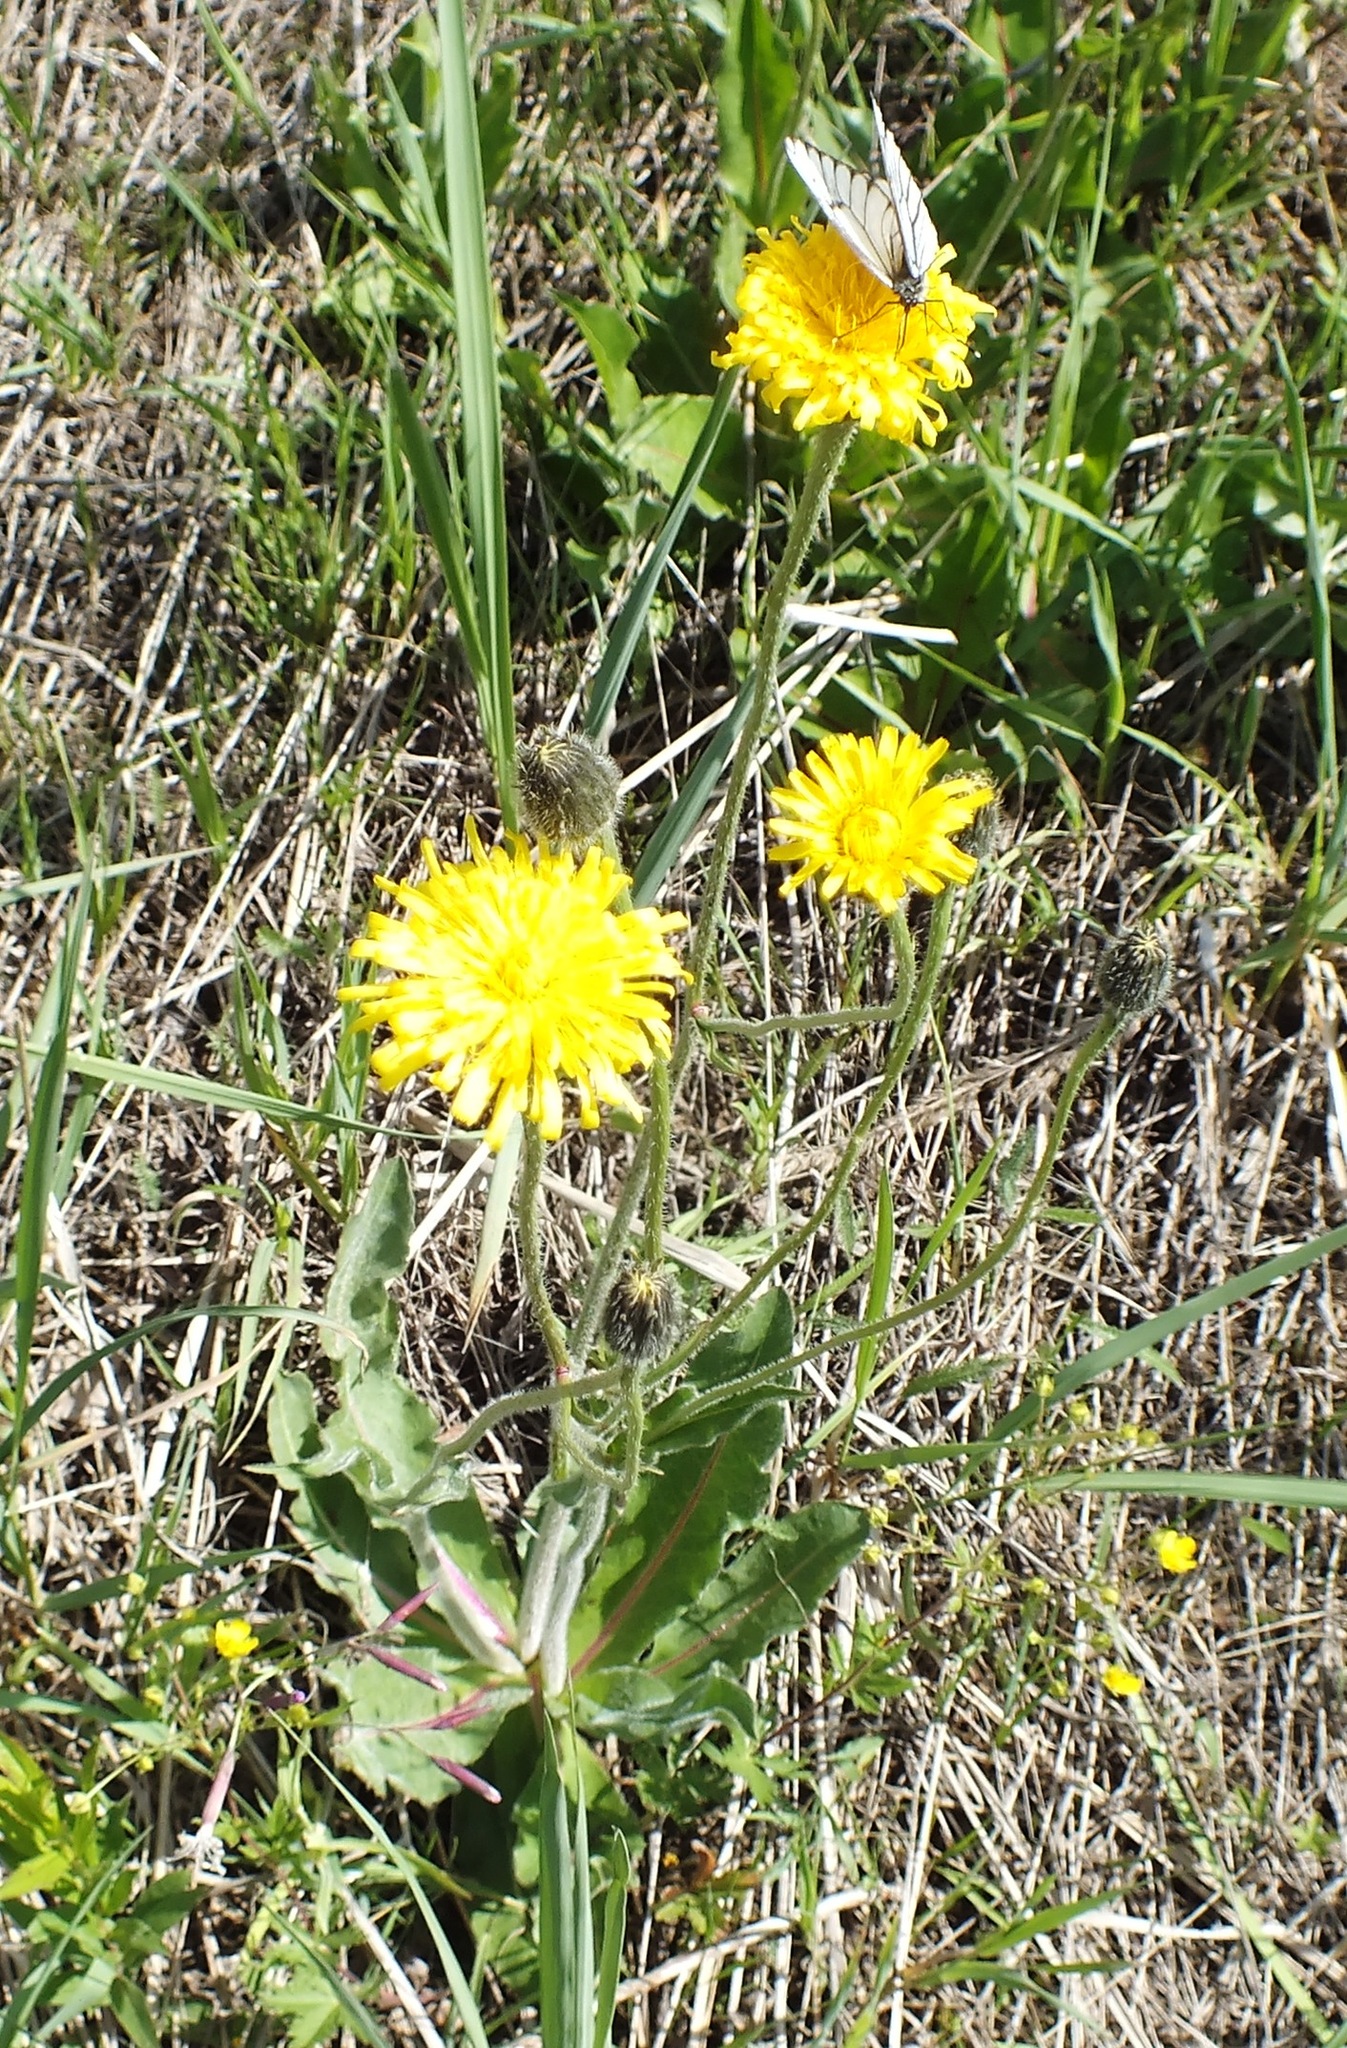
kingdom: Plantae
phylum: Tracheophyta
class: Magnoliopsida
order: Asterales
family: Asteraceae
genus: Trommsdorffia
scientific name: Trommsdorffia maculata
